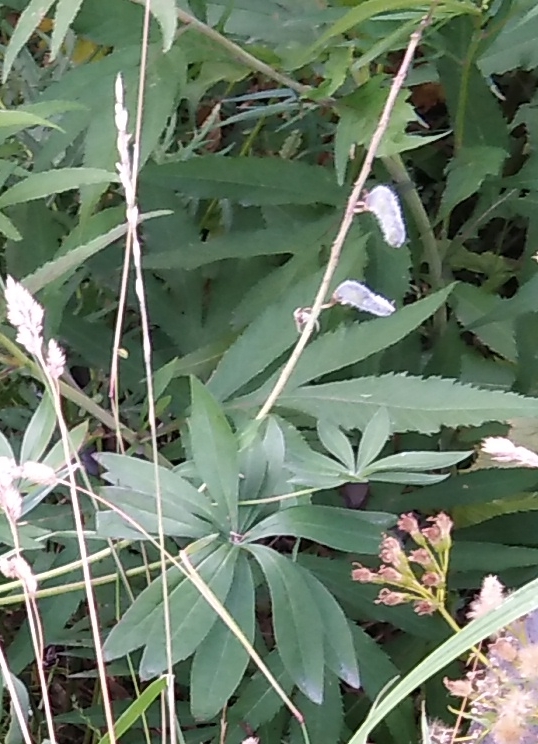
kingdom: Plantae
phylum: Tracheophyta
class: Magnoliopsida
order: Fabales
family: Fabaceae
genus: Lupinus
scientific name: Lupinus polyphyllus
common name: Garden lupin
